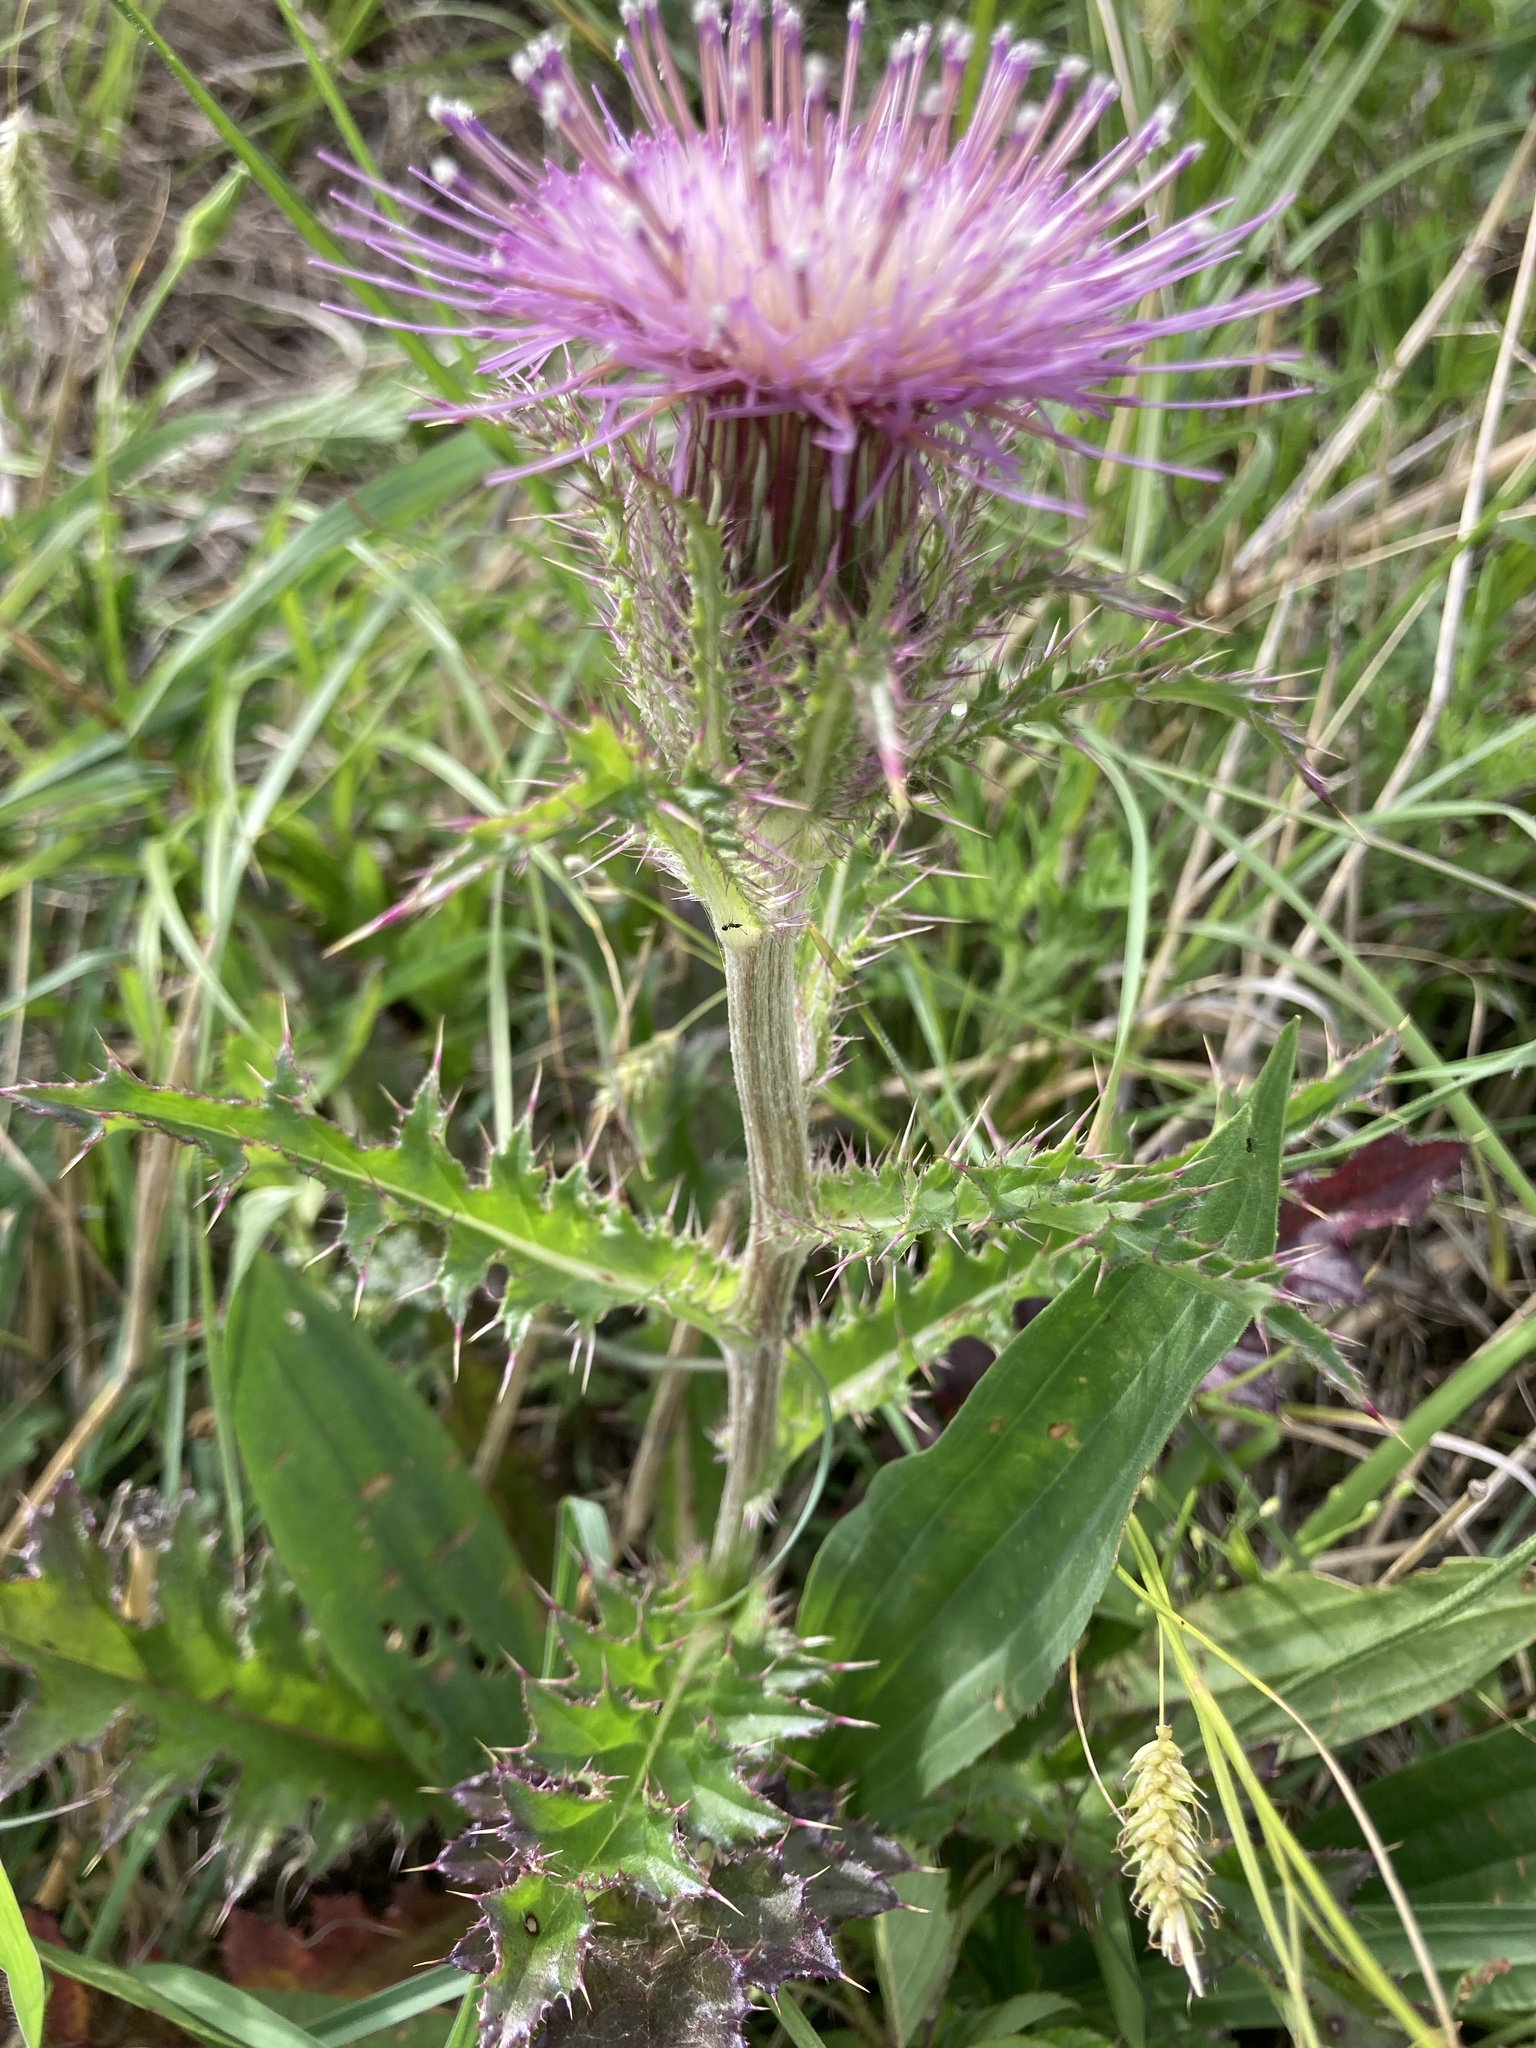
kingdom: Plantae
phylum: Tracheophyta
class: Magnoliopsida
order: Asterales
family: Asteraceae
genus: Cirsium
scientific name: Cirsium horridulum
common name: Bristly thistle
